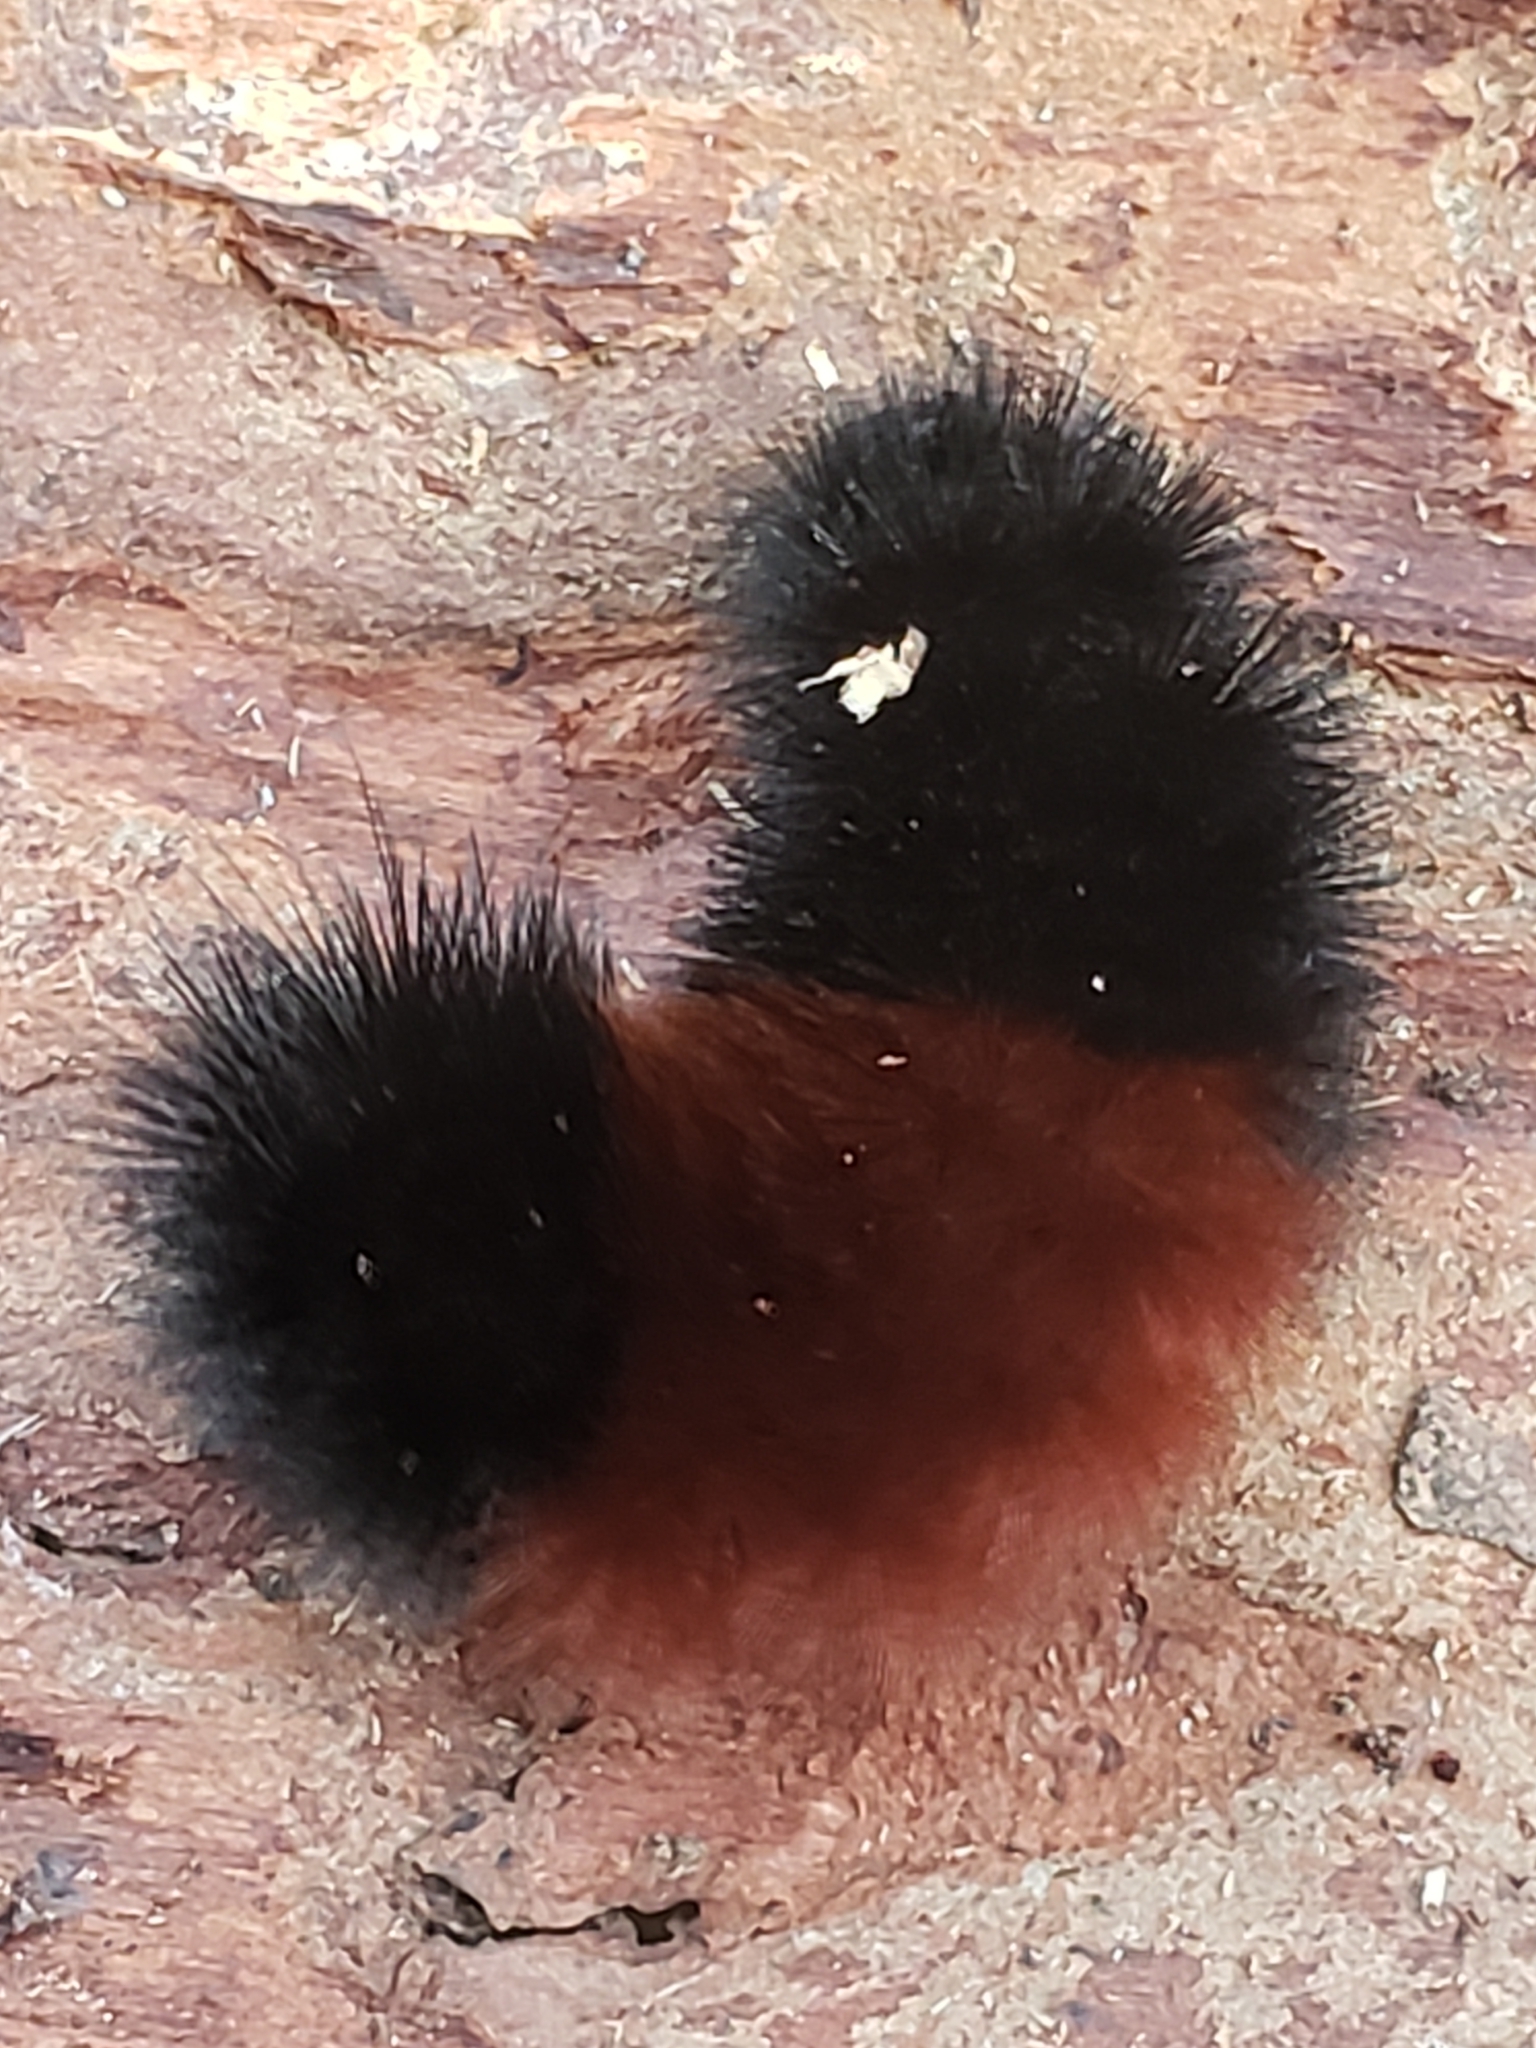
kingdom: Animalia
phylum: Arthropoda
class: Insecta
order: Lepidoptera
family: Erebidae
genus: Pyrrharctia
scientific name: Pyrrharctia isabella
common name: Isabella tiger moth
